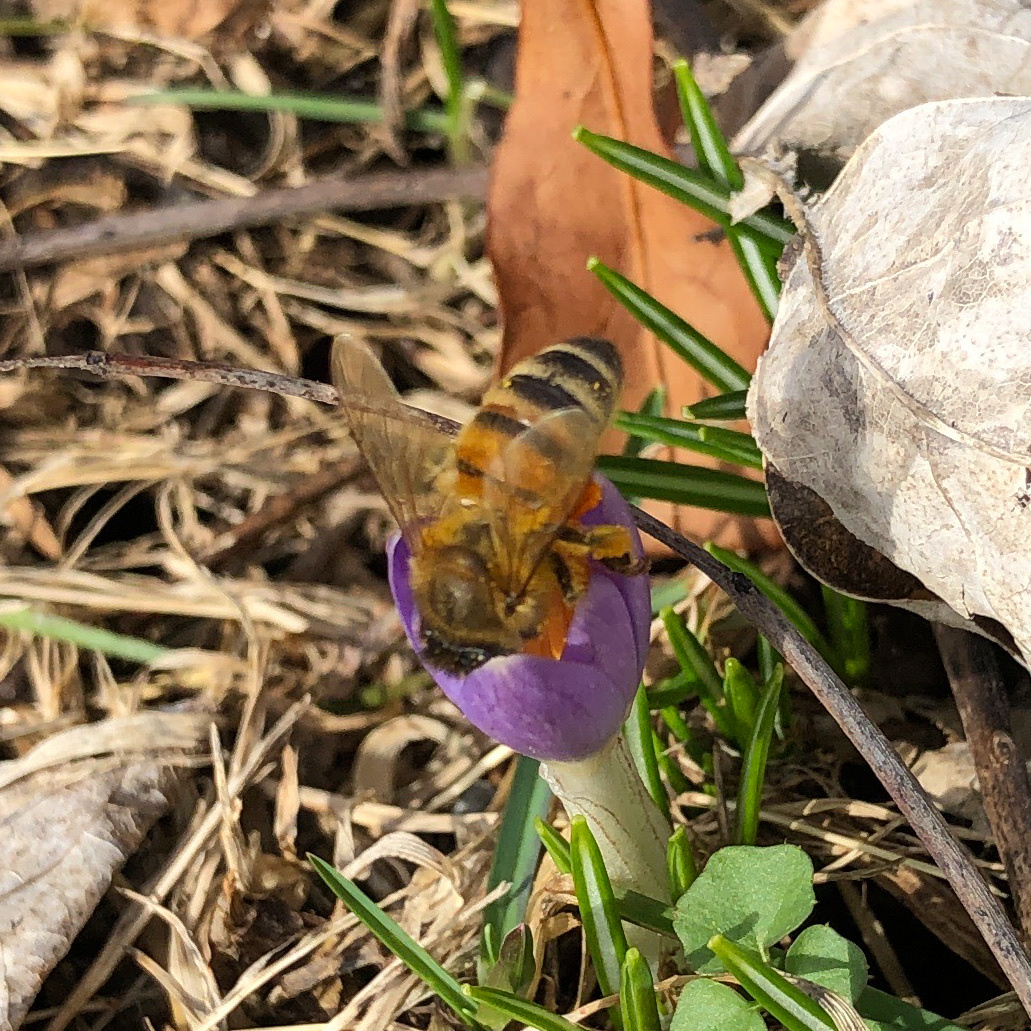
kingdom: Animalia
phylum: Arthropoda
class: Insecta
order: Hymenoptera
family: Apidae
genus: Apis
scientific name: Apis mellifera
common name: Honey bee
